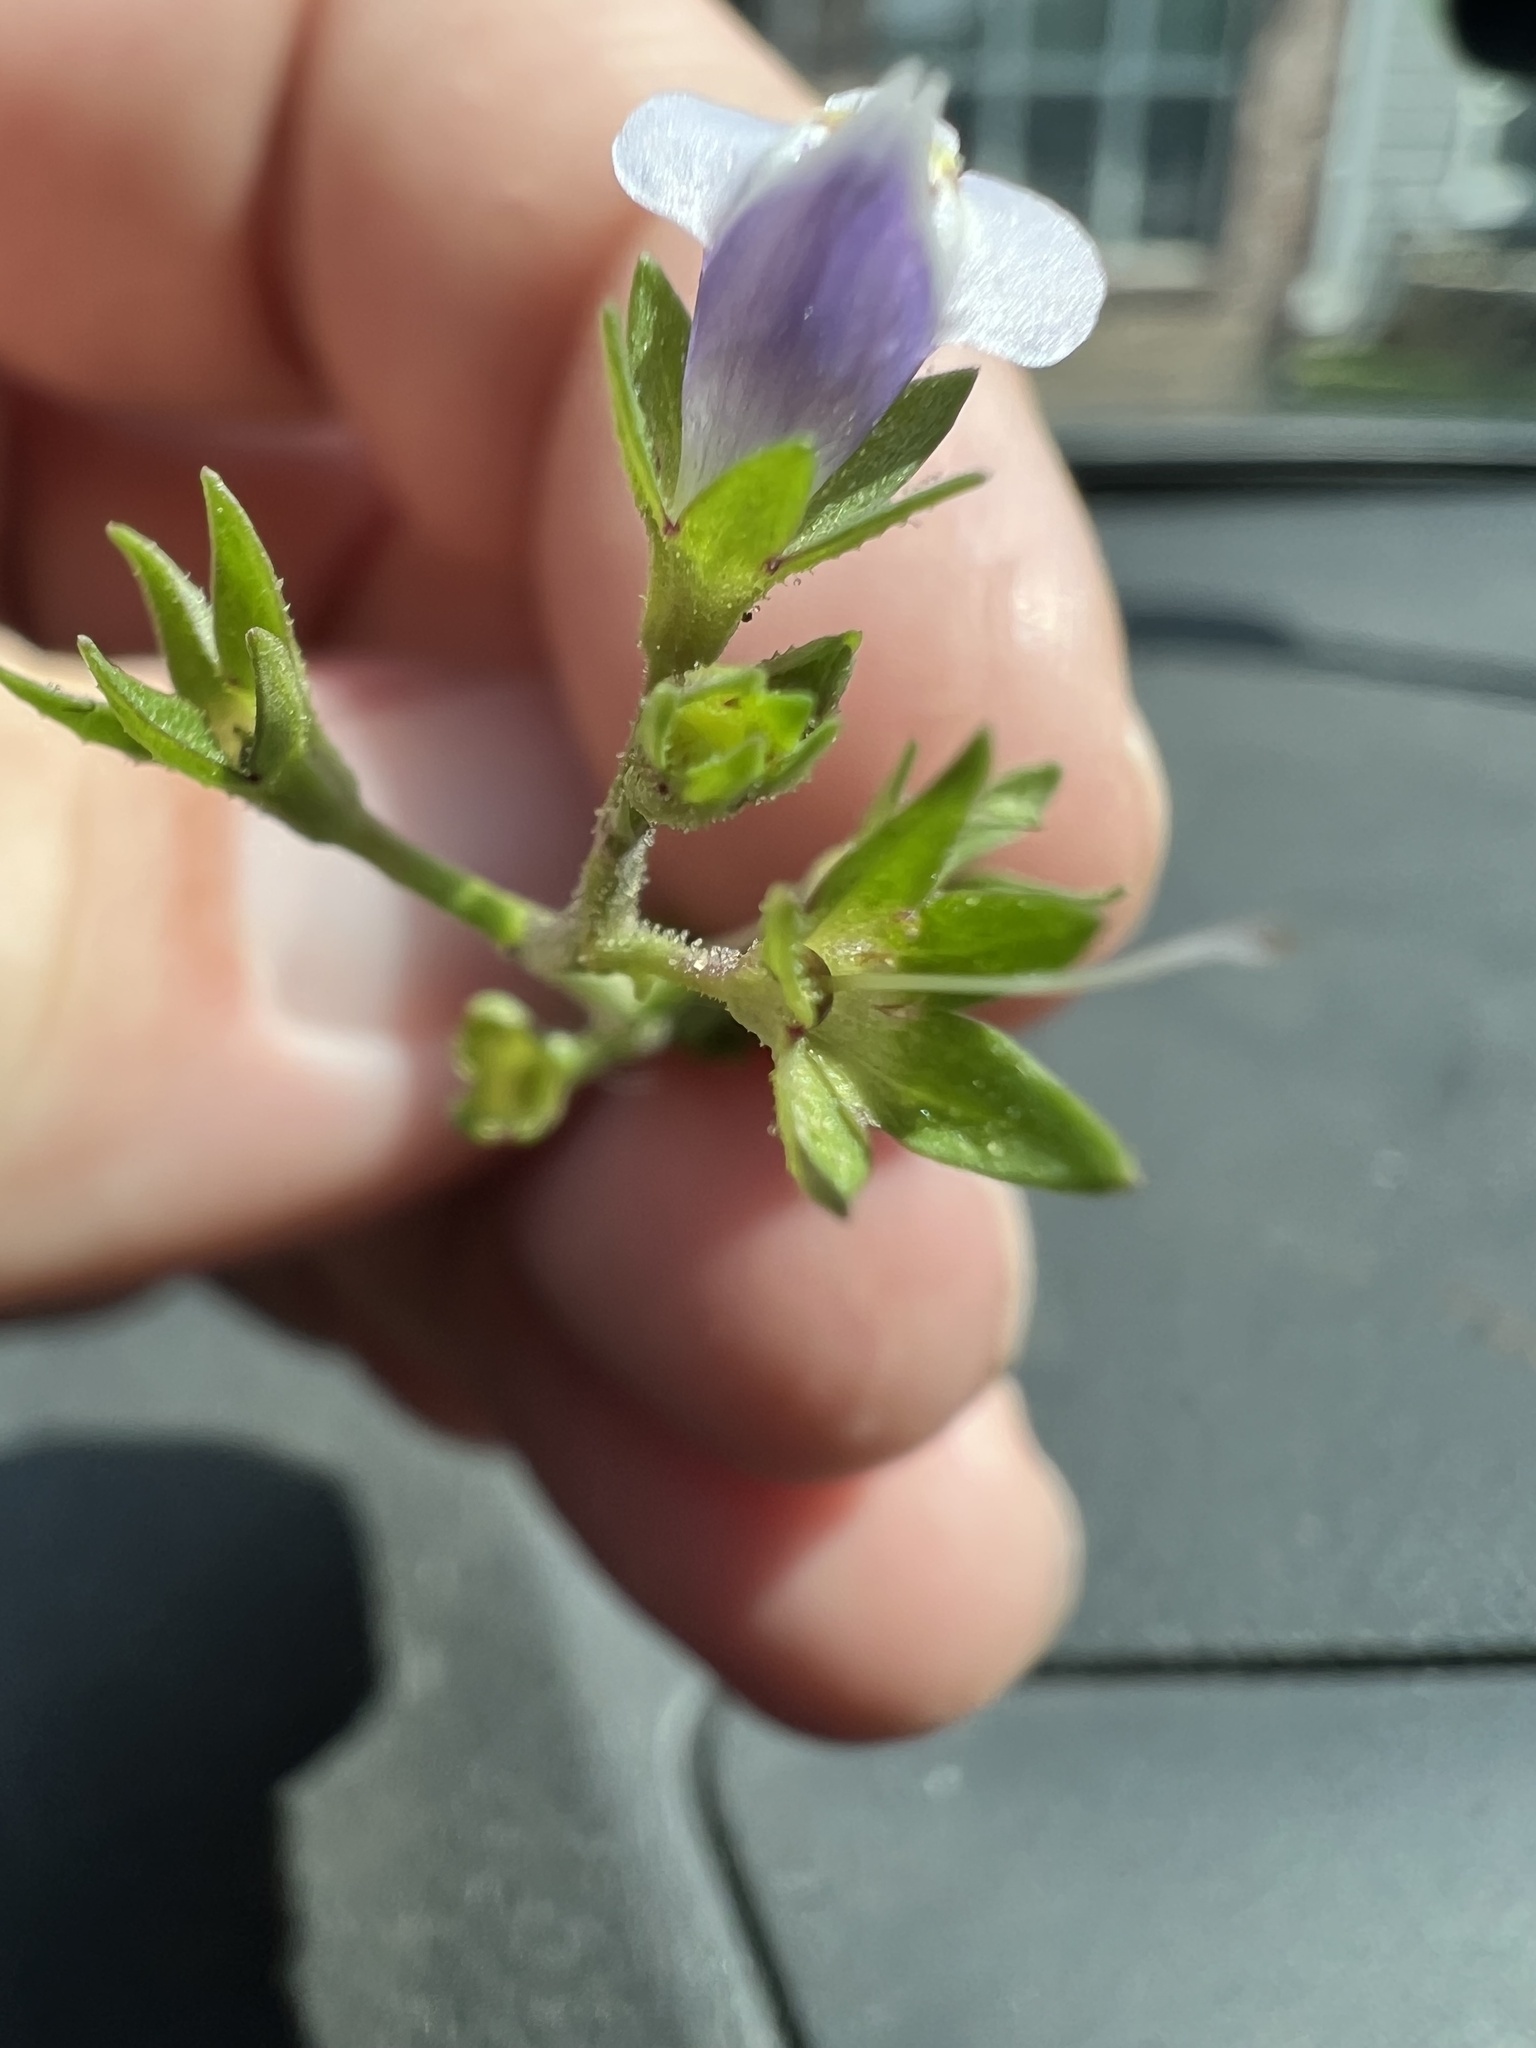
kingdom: Plantae
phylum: Tracheophyta
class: Magnoliopsida
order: Lamiales
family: Mazaceae
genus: Mazus
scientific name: Mazus pumilus
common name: Japanese mazus
